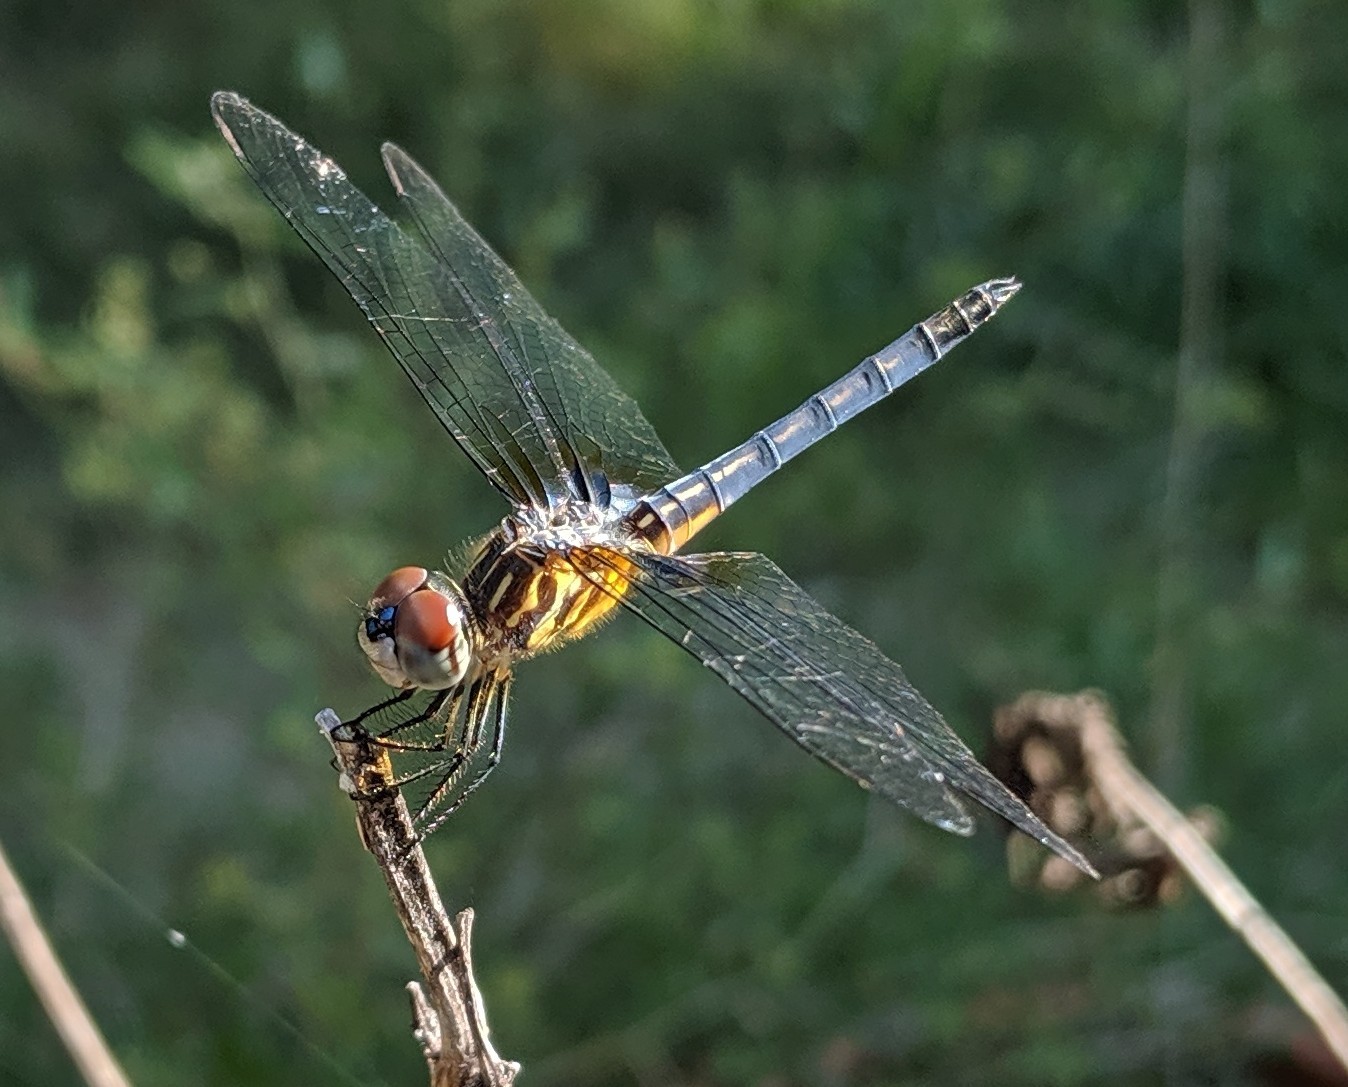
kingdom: Animalia
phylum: Arthropoda
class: Insecta
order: Odonata
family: Libellulidae
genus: Pachydiplax
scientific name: Pachydiplax longipennis
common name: Blue dasher
